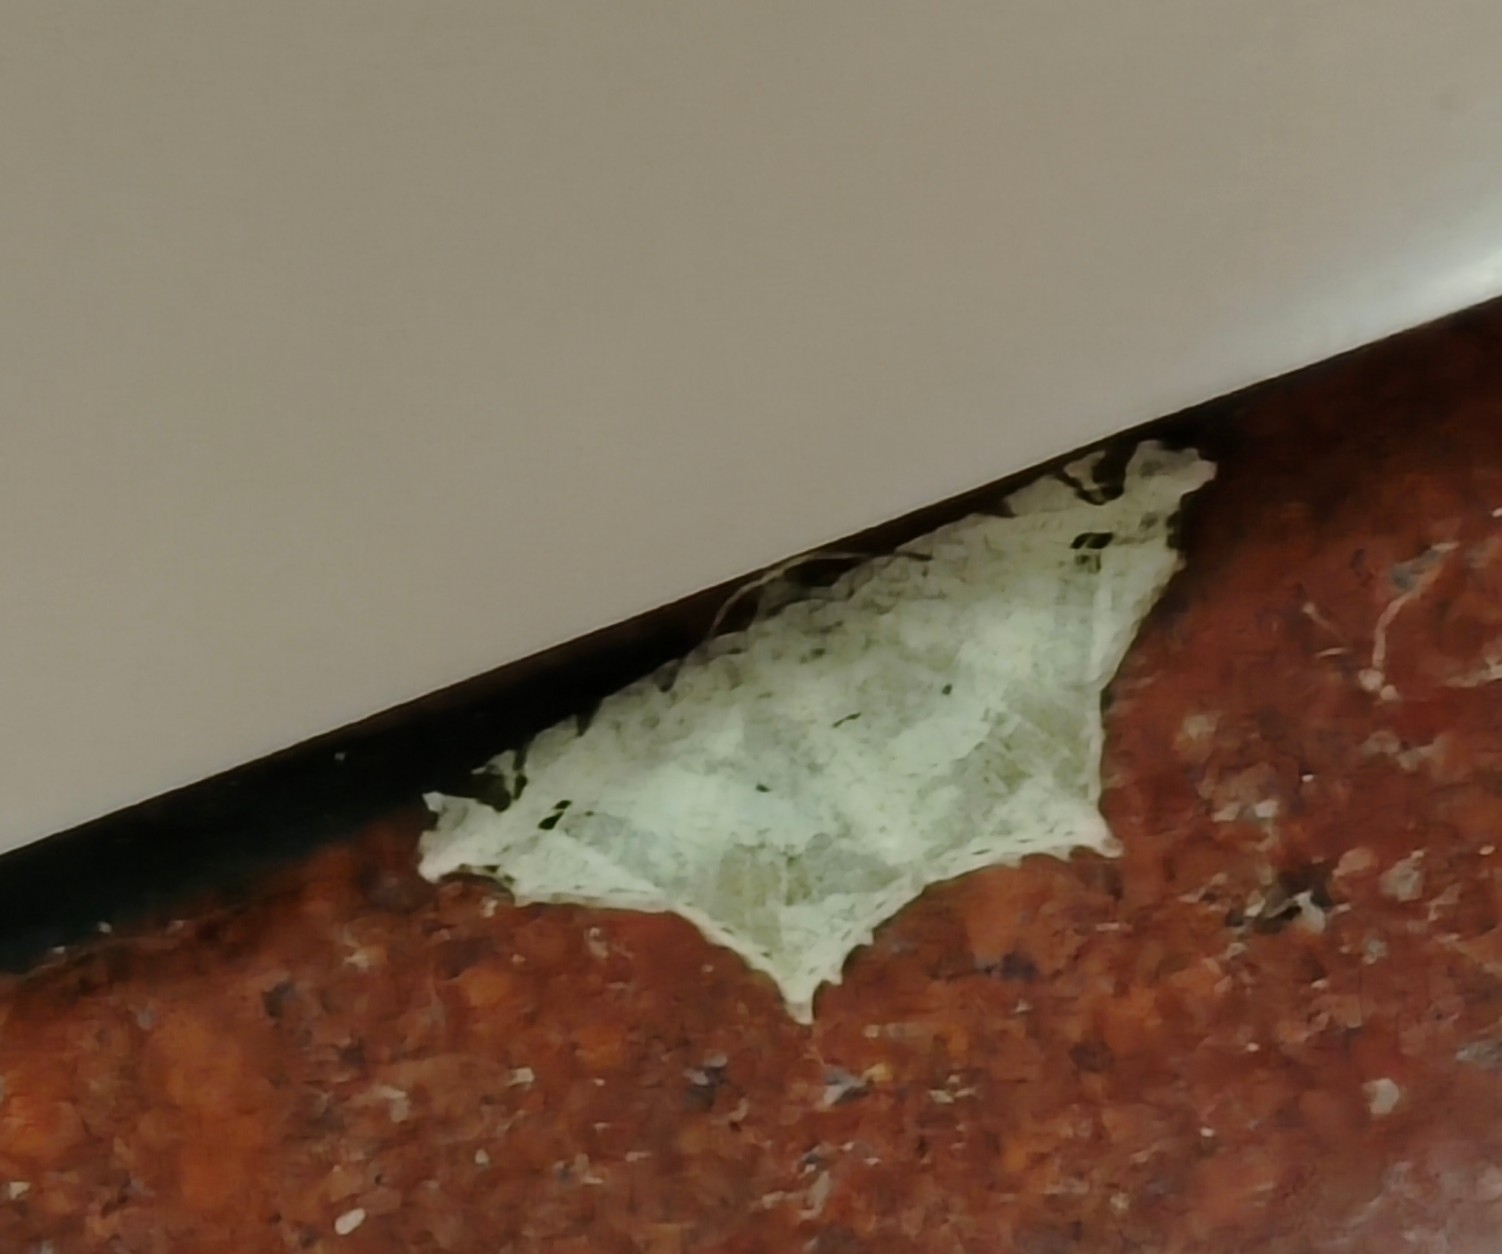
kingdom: Animalia
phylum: Arthropoda
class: Insecta
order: Lepidoptera
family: Geometridae
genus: Chiasmia
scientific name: Chiasmia emersaria
